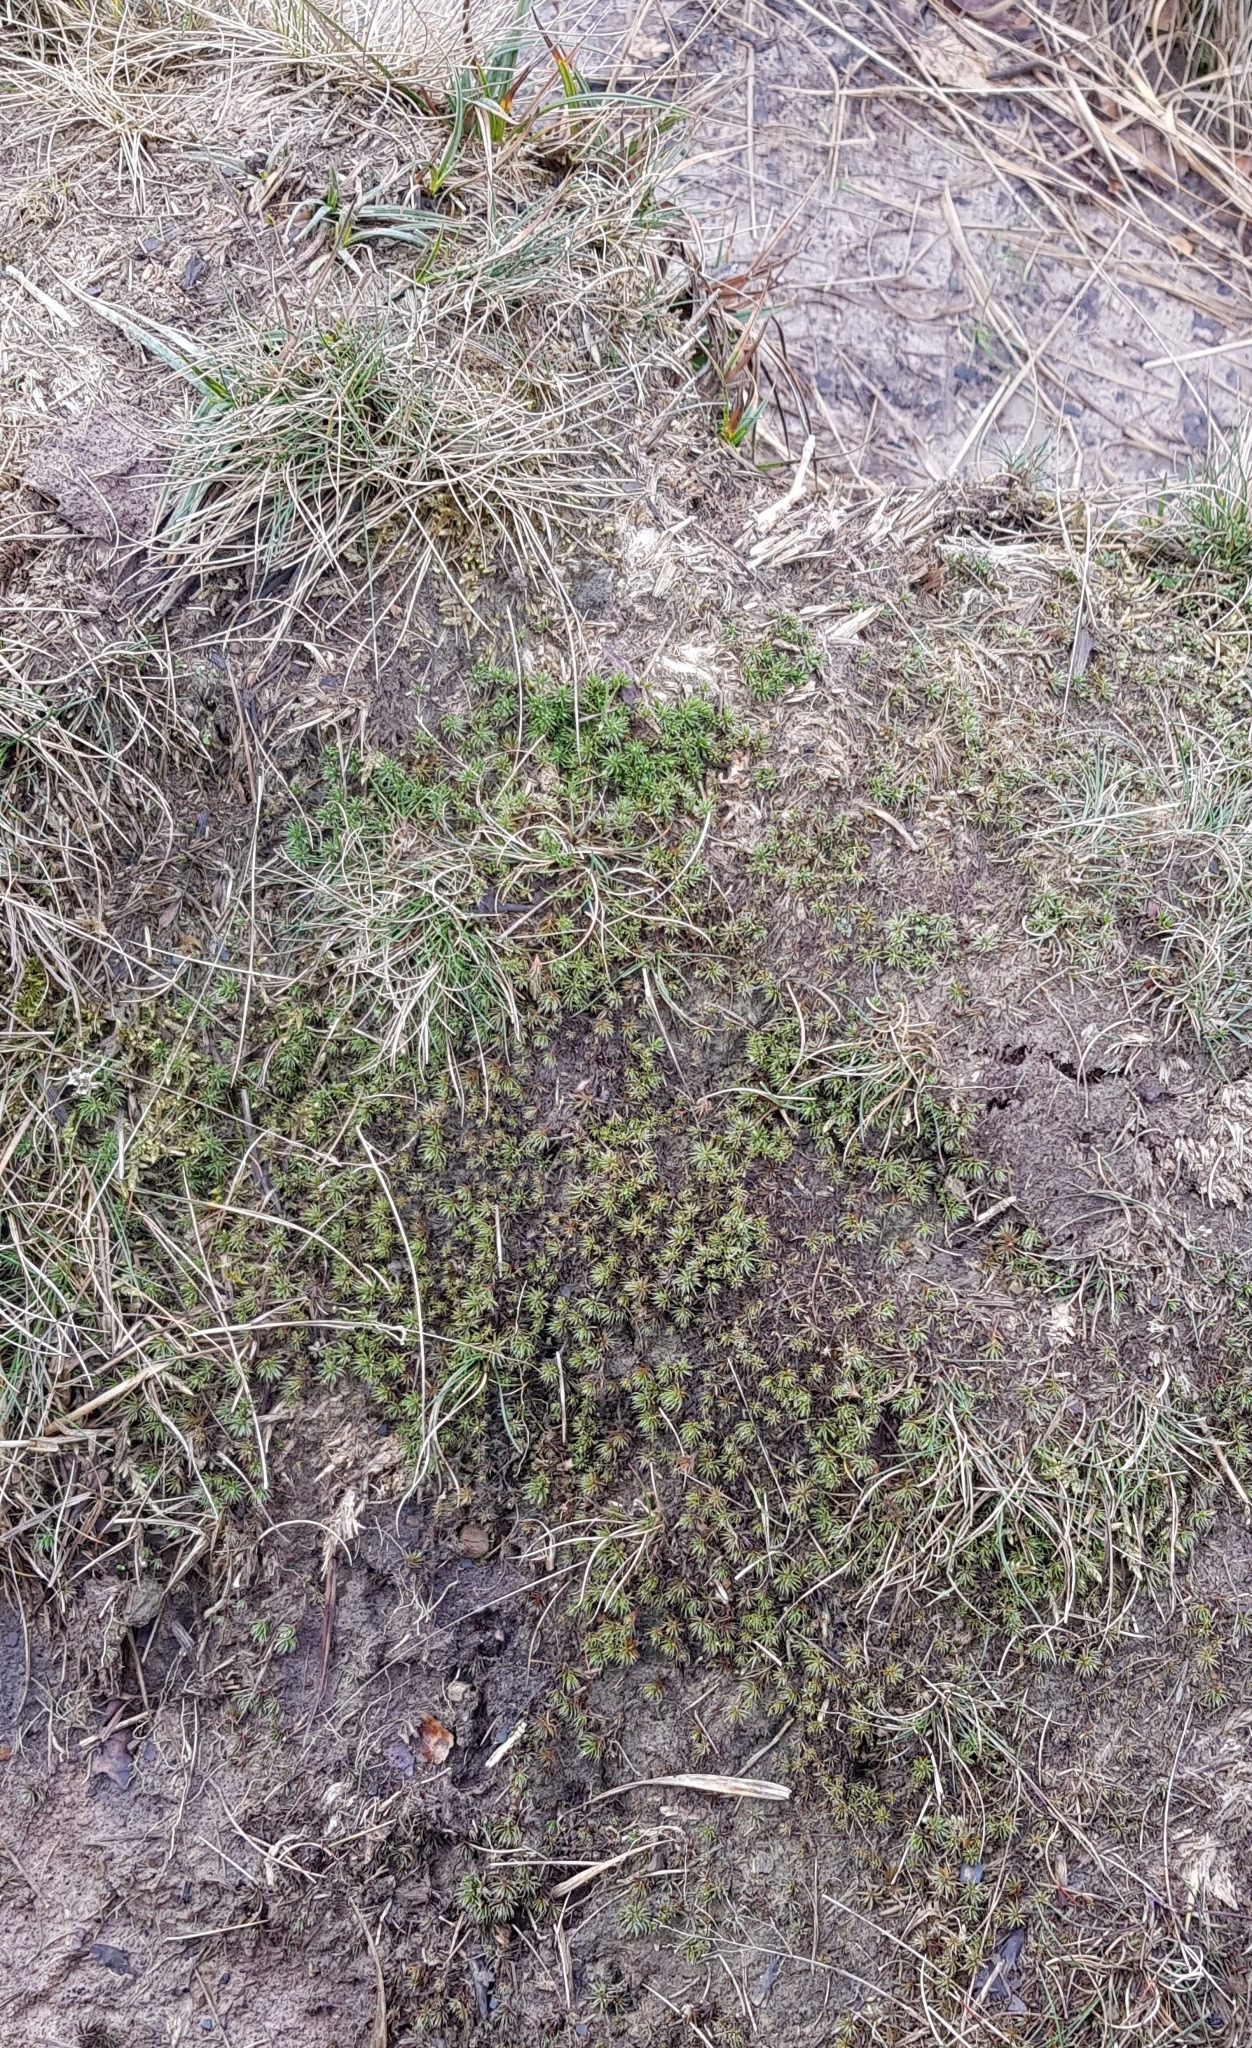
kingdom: Plantae
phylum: Bryophyta
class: Polytrichopsida
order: Polytrichales
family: Polytrichaceae
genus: Polytrichum
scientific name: Polytrichum piliferum
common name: Bristly haircap
